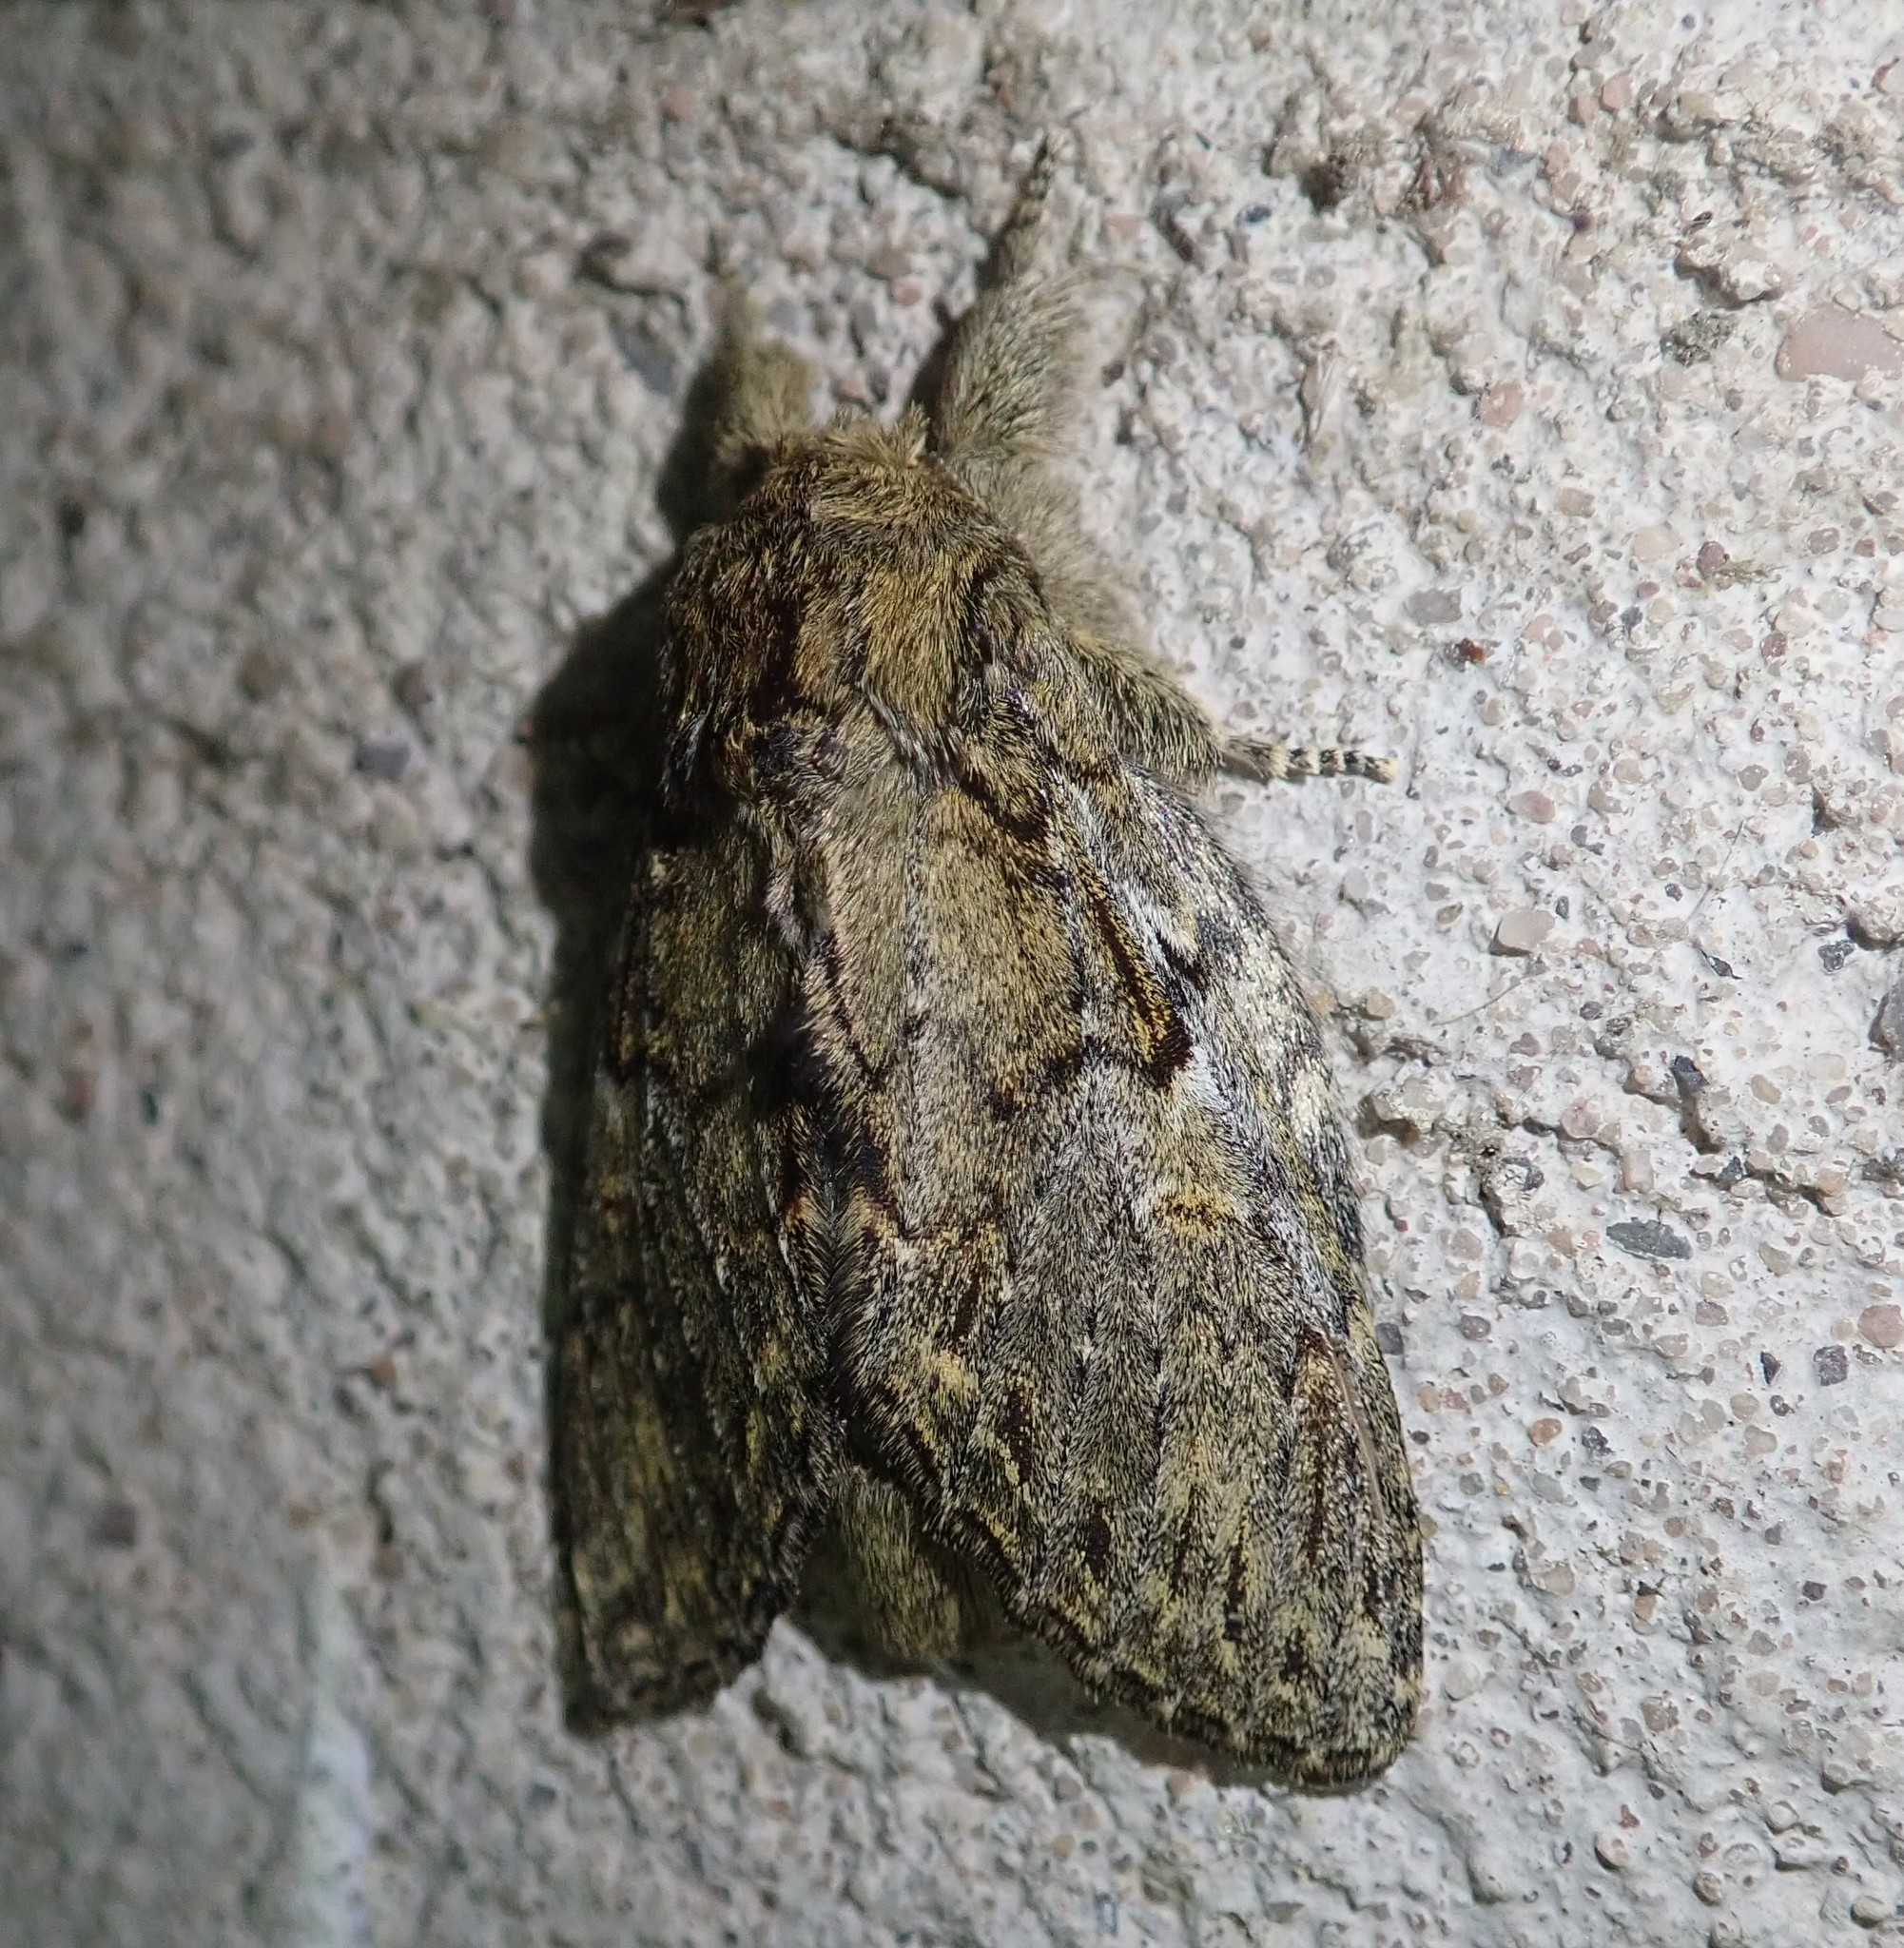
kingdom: Animalia
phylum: Arthropoda
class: Insecta
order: Lepidoptera
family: Notodontidae
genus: Peridea
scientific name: Peridea anceps
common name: Great prominent
